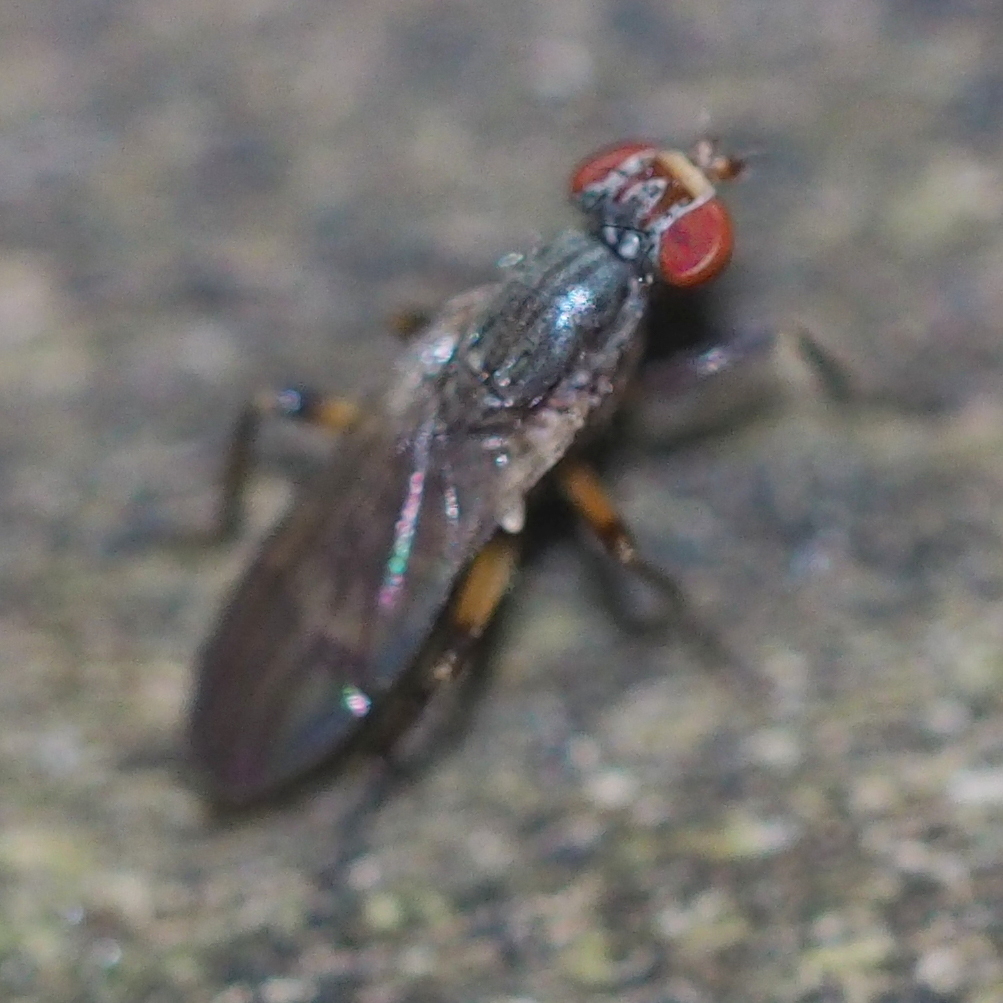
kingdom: Animalia
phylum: Arthropoda
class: Insecta
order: Diptera
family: Sciomyzidae
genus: Pherbellia
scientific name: Pherbellia annulipes
